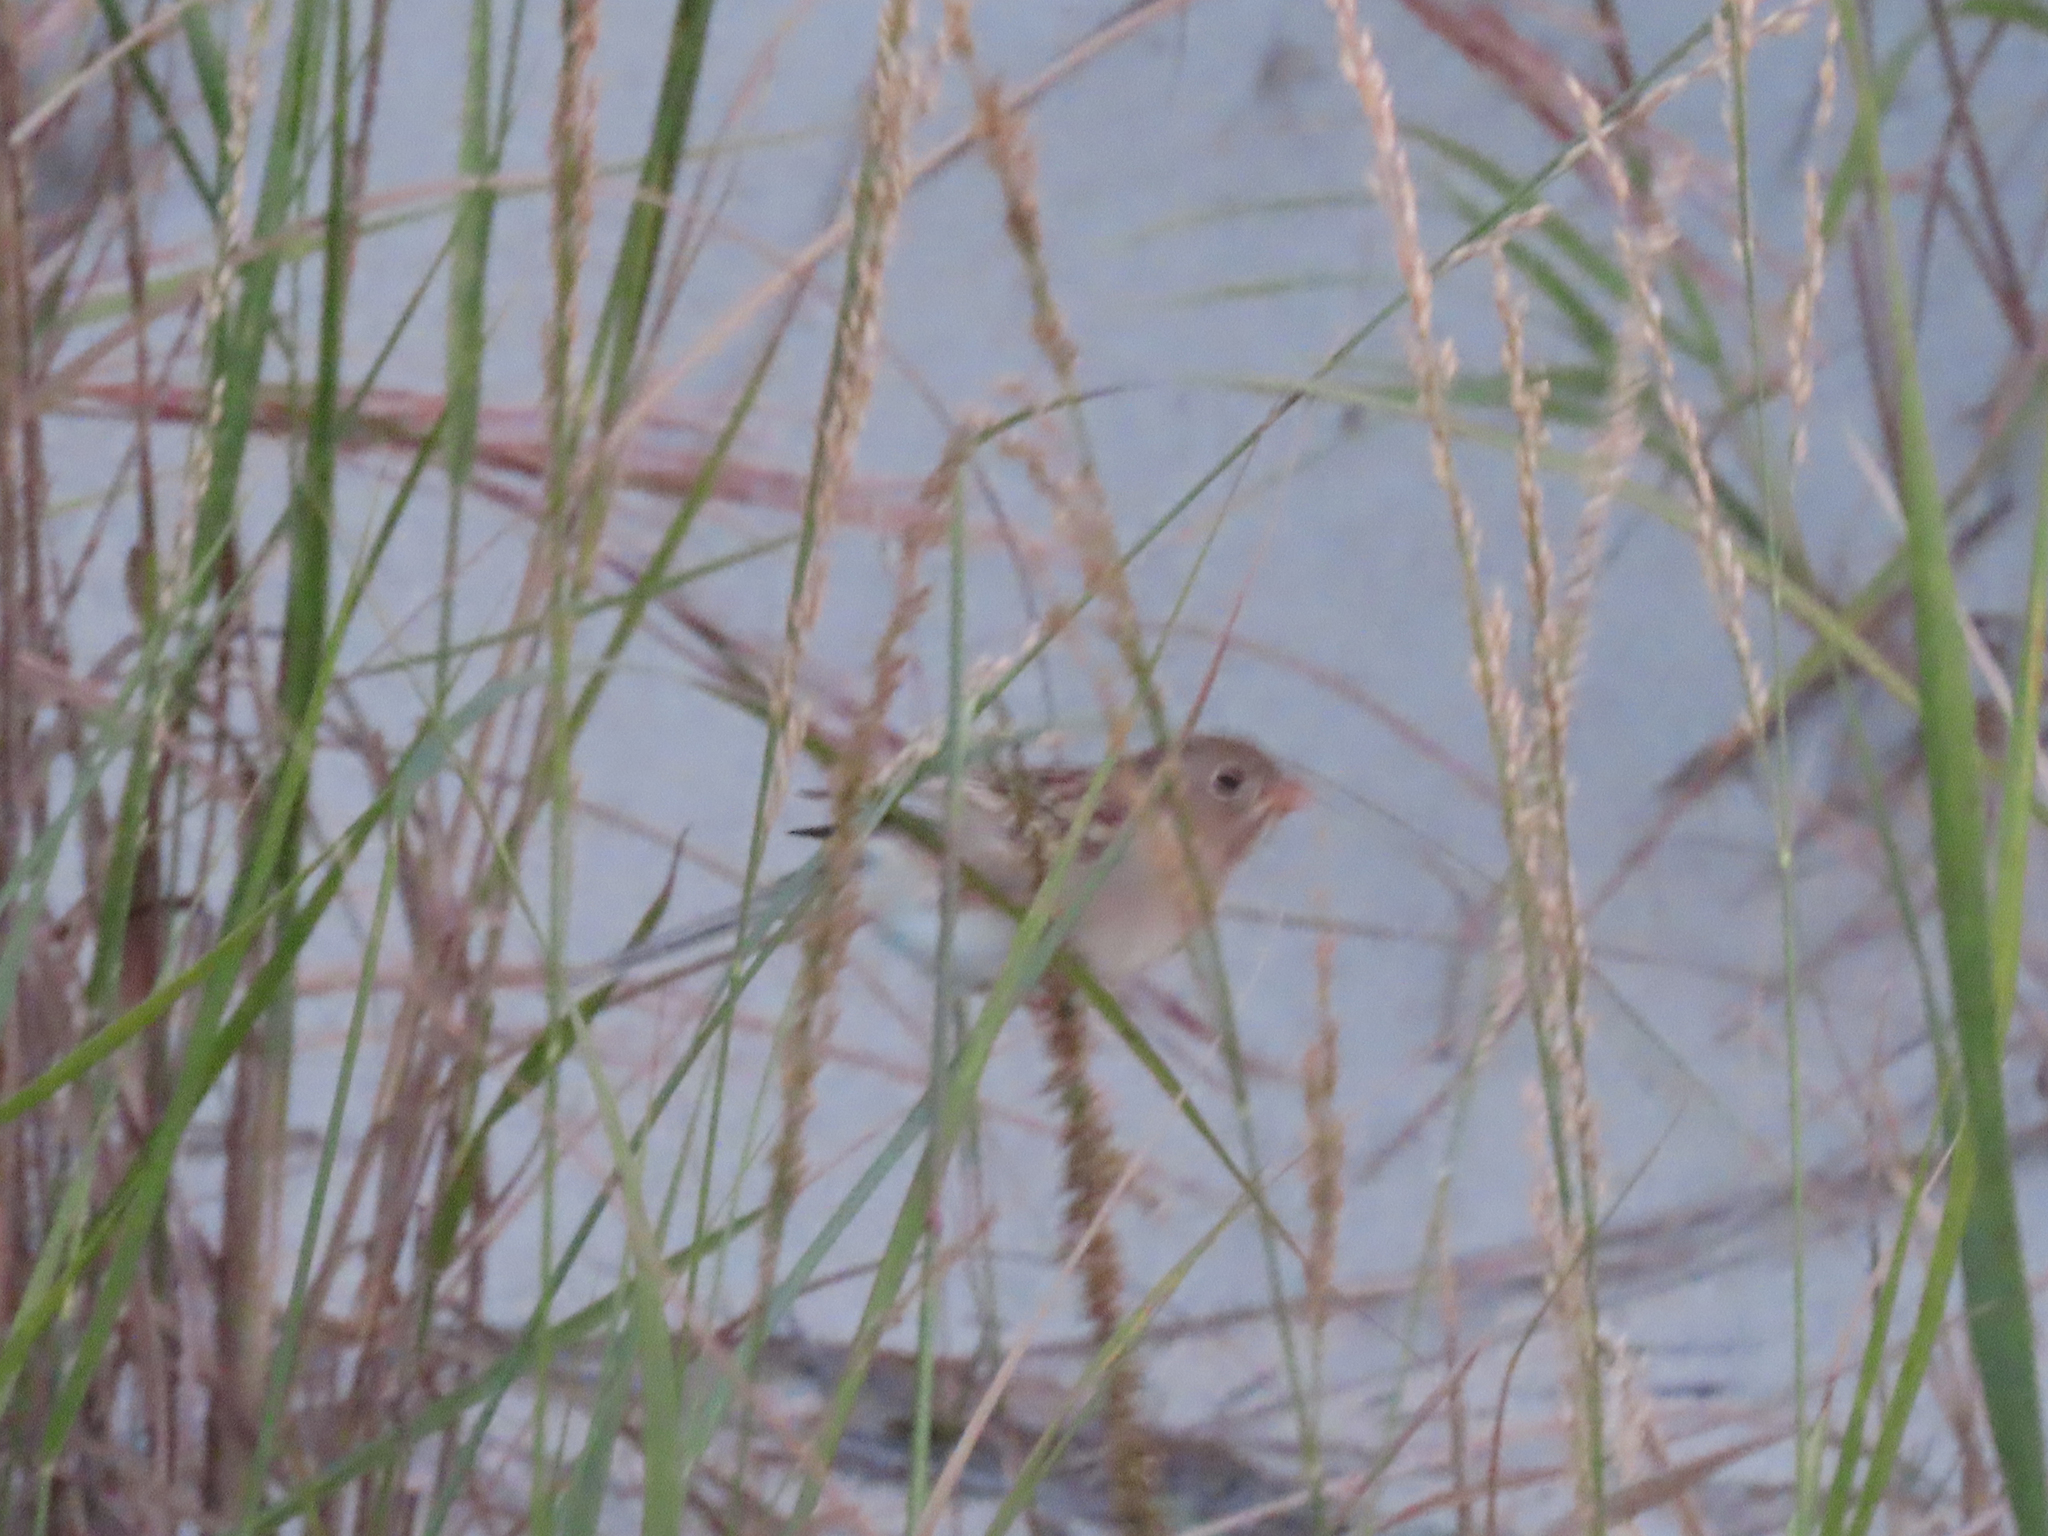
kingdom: Animalia
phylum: Chordata
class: Aves
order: Passeriformes
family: Passerellidae
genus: Spizella
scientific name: Spizella pusilla
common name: Field sparrow
